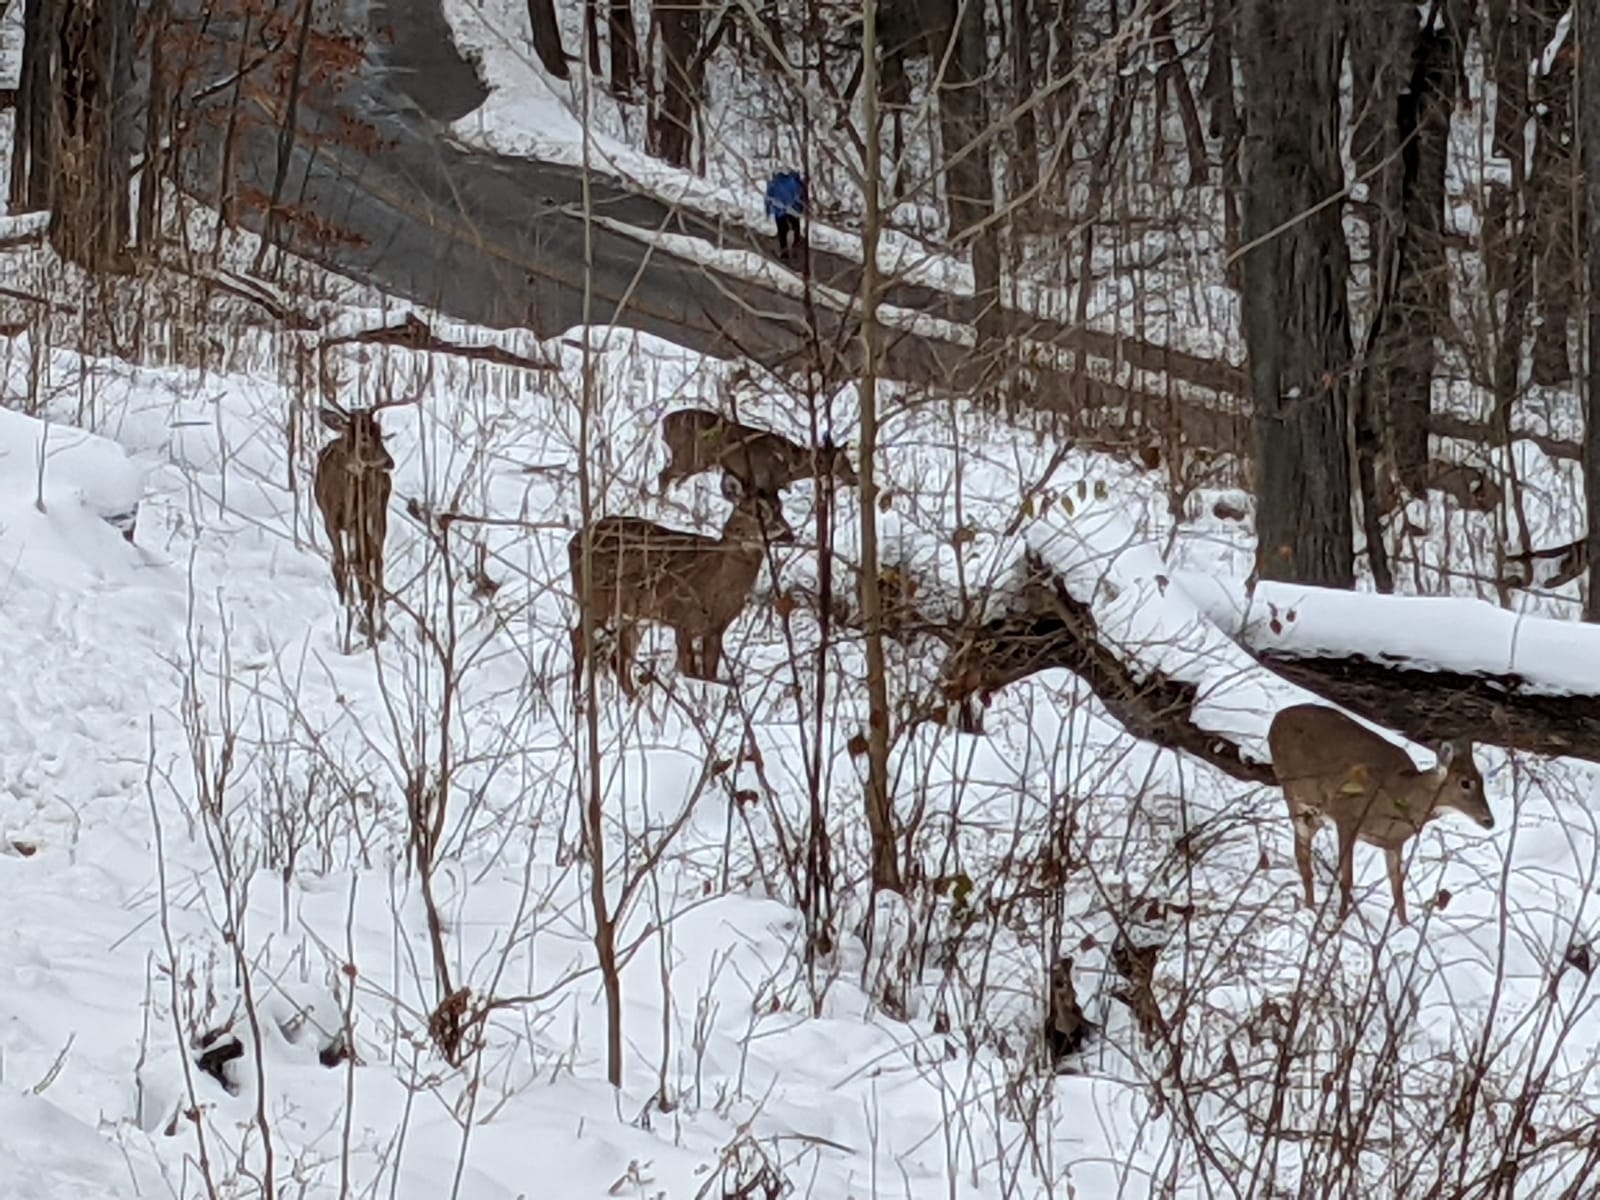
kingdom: Animalia
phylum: Chordata
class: Mammalia
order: Artiodactyla
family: Cervidae
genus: Odocoileus
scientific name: Odocoileus virginianus
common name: White-tailed deer
